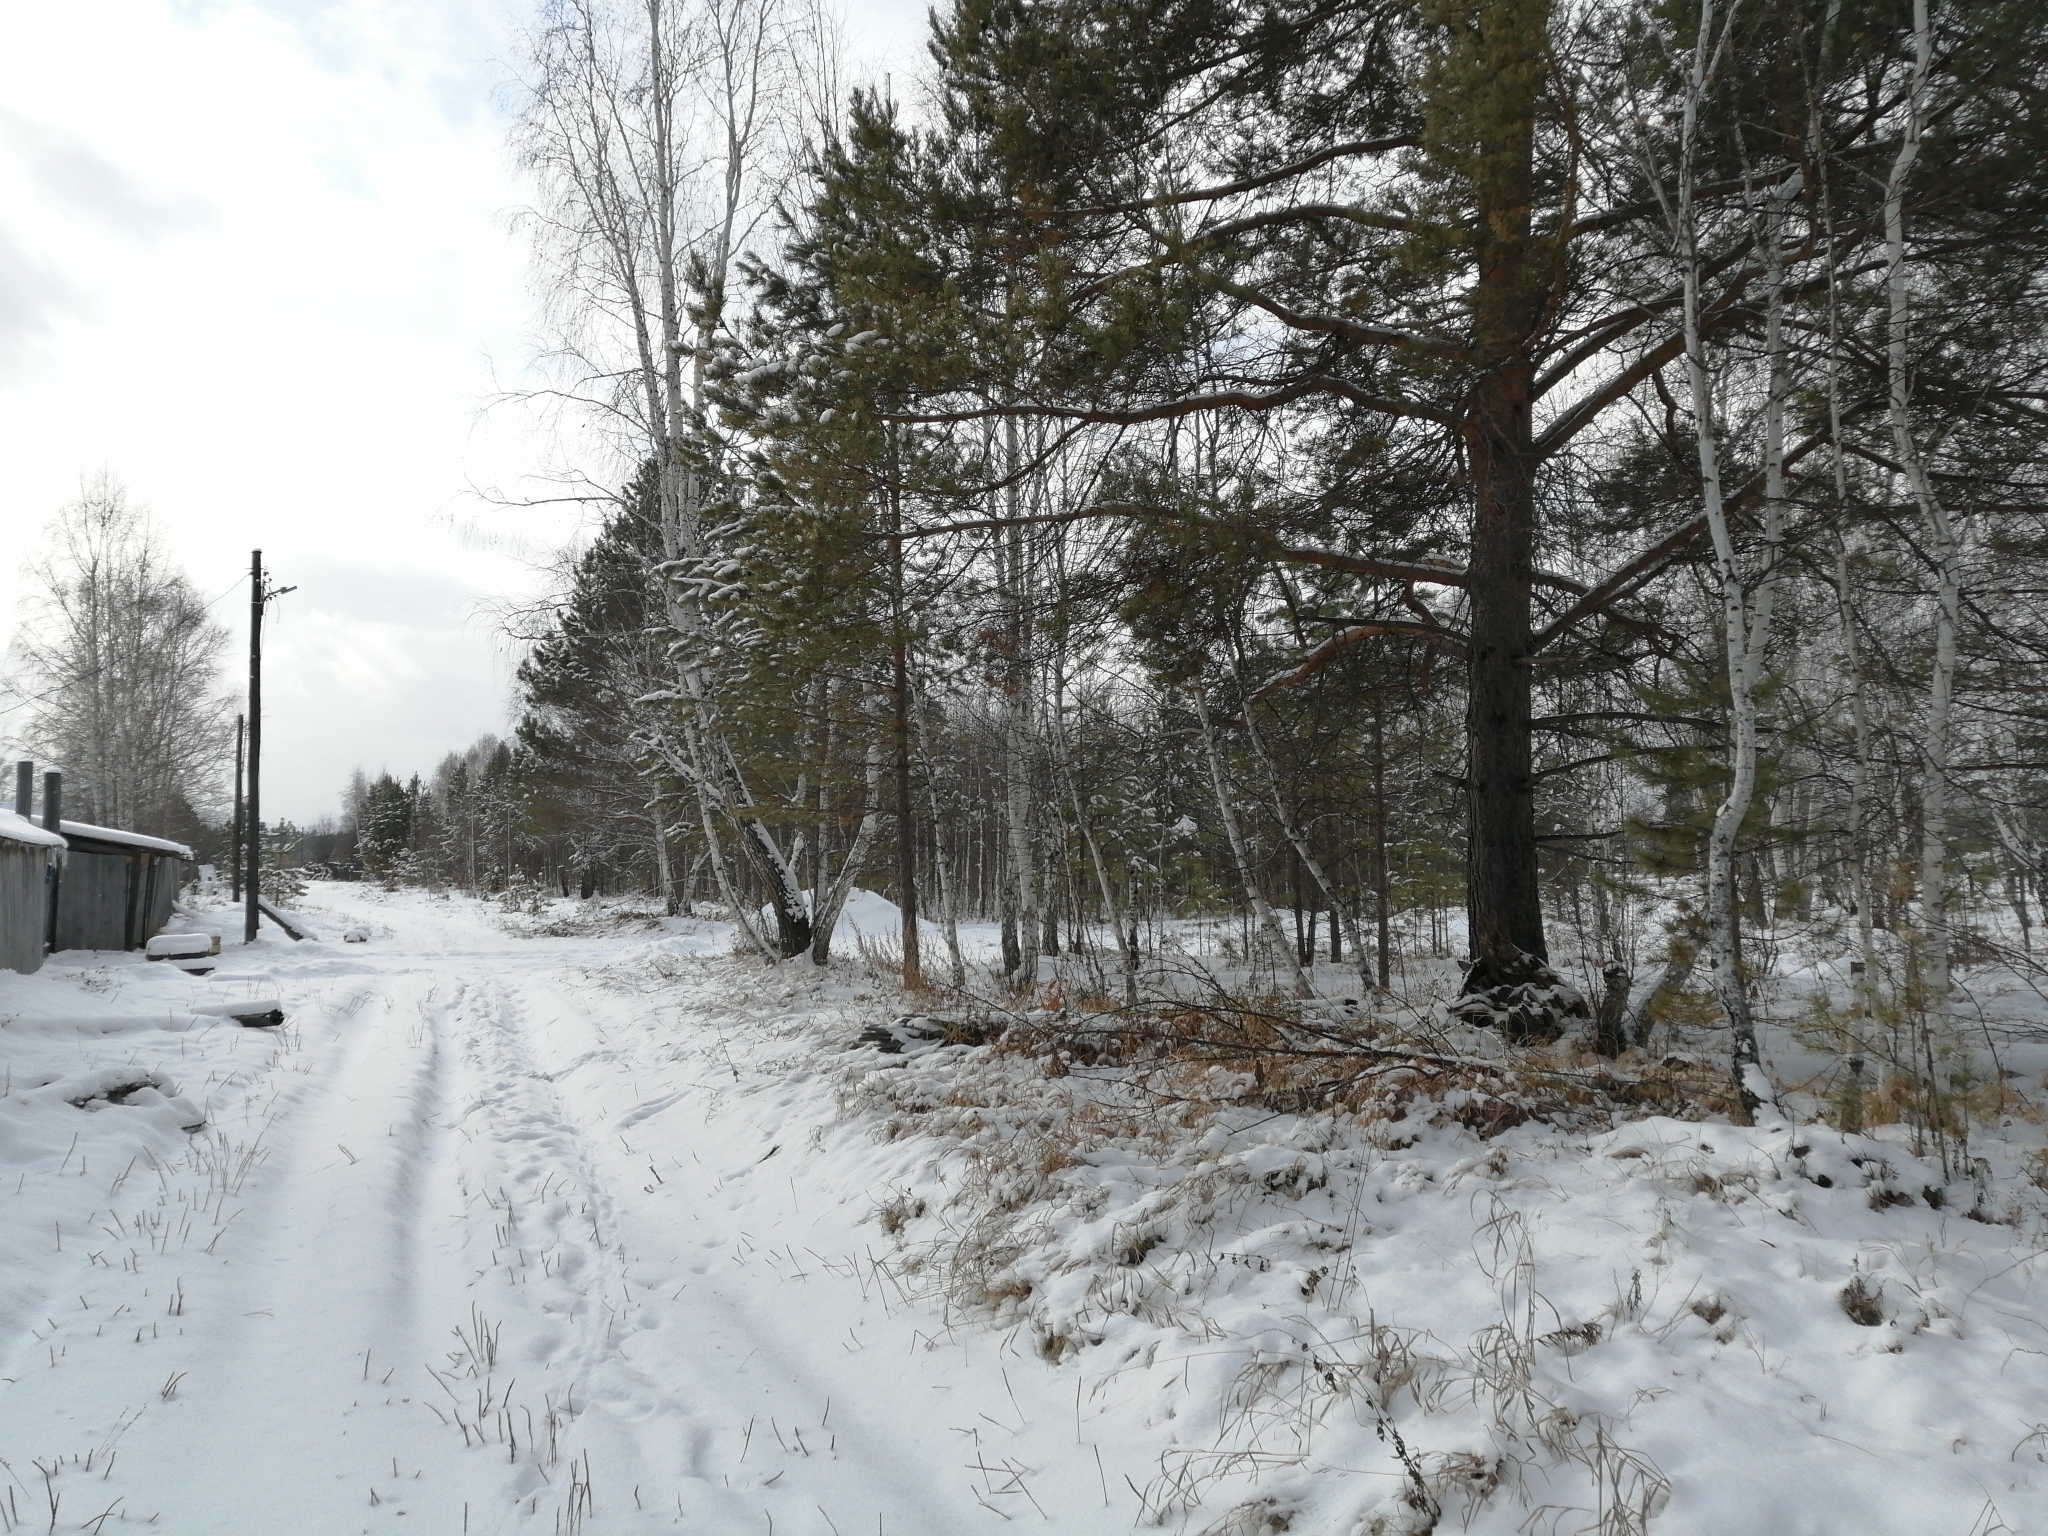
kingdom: Plantae
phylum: Tracheophyta
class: Pinopsida
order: Pinales
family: Pinaceae
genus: Pinus
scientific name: Pinus sylvestris
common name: Scots pine
